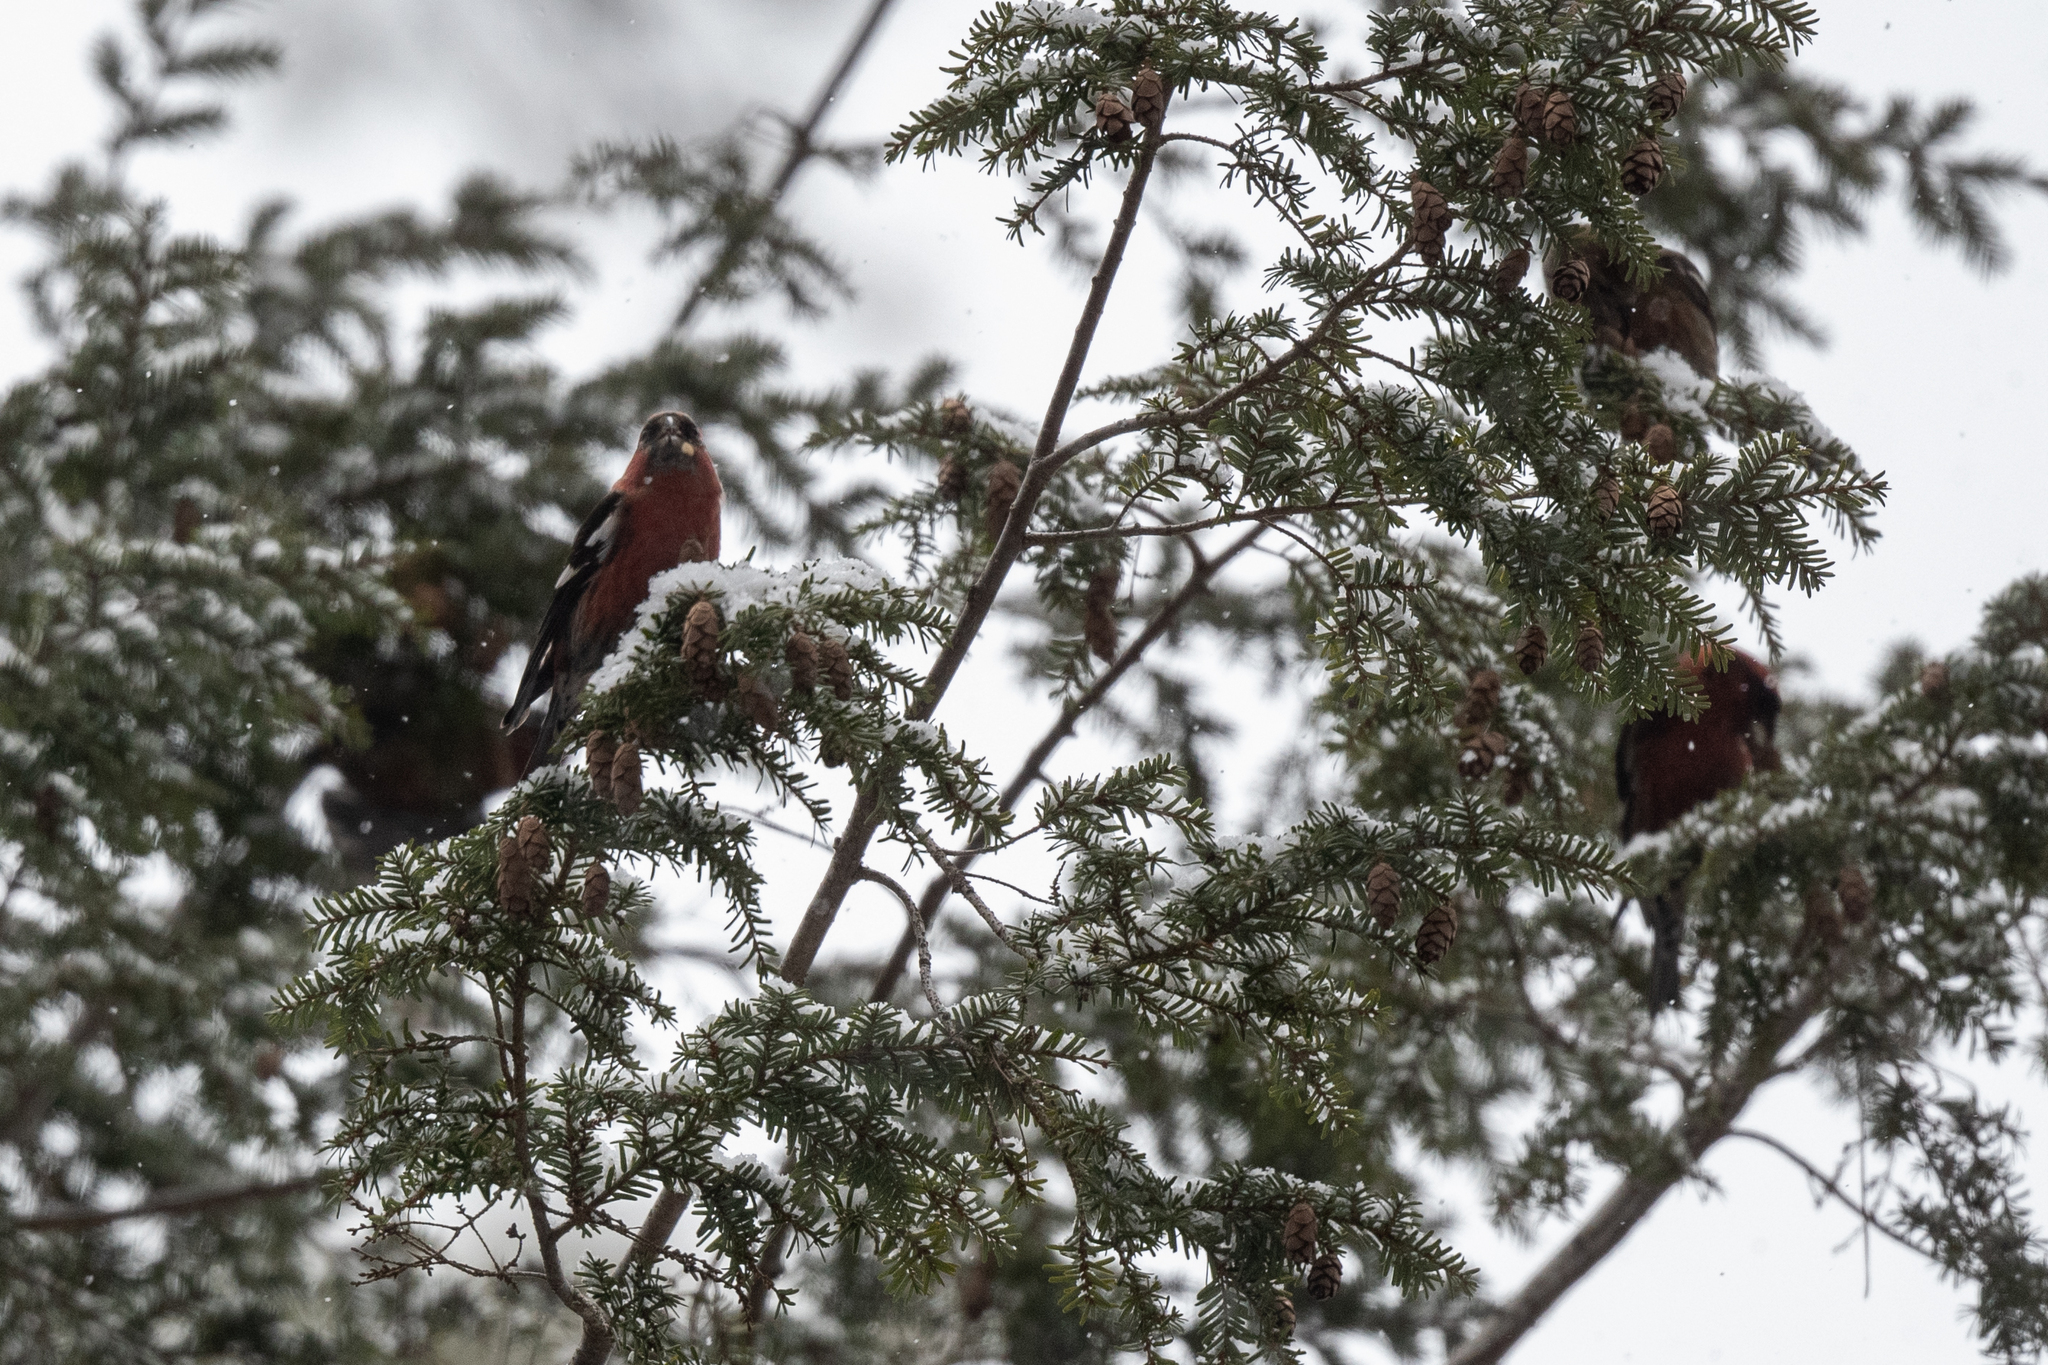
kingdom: Animalia
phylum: Chordata
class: Aves
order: Passeriformes
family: Fringillidae
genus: Loxia
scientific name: Loxia leucoptera
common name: Two-barred crossbill
